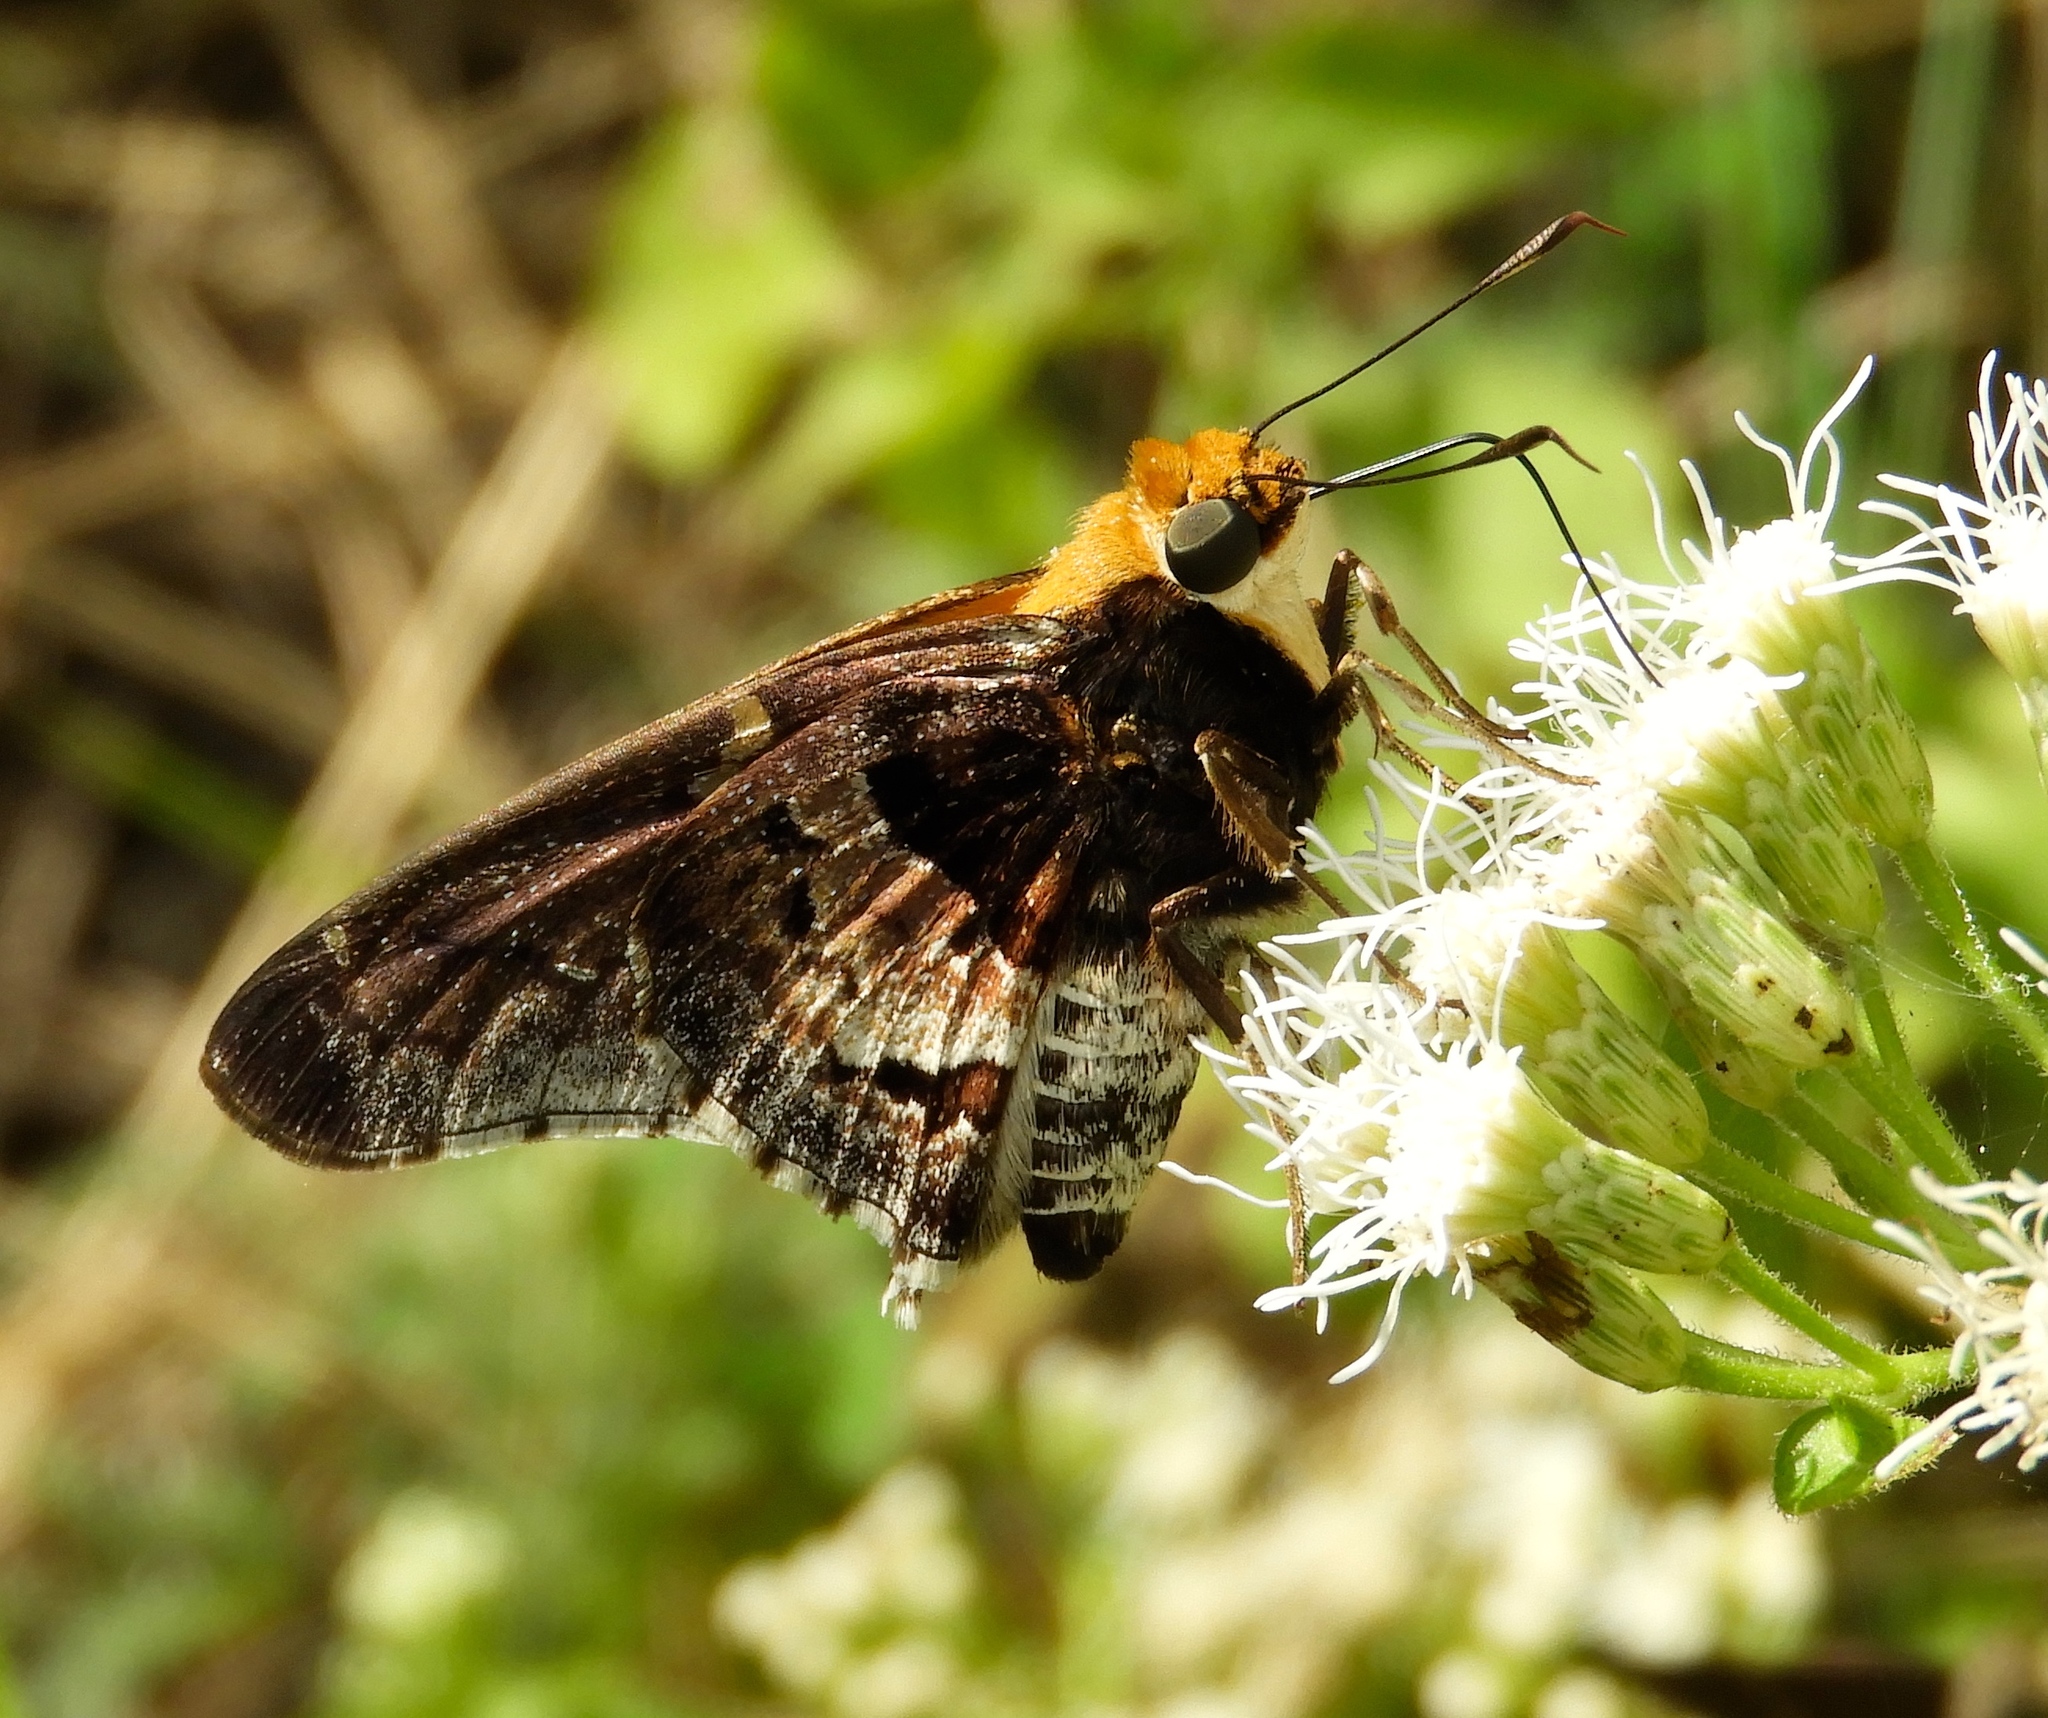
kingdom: Animalia
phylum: Arthropoda
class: Insecta
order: Lepidoptera
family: Hesperiidae
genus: Proteides
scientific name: Proteides mercurius
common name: Mercurial skipper
